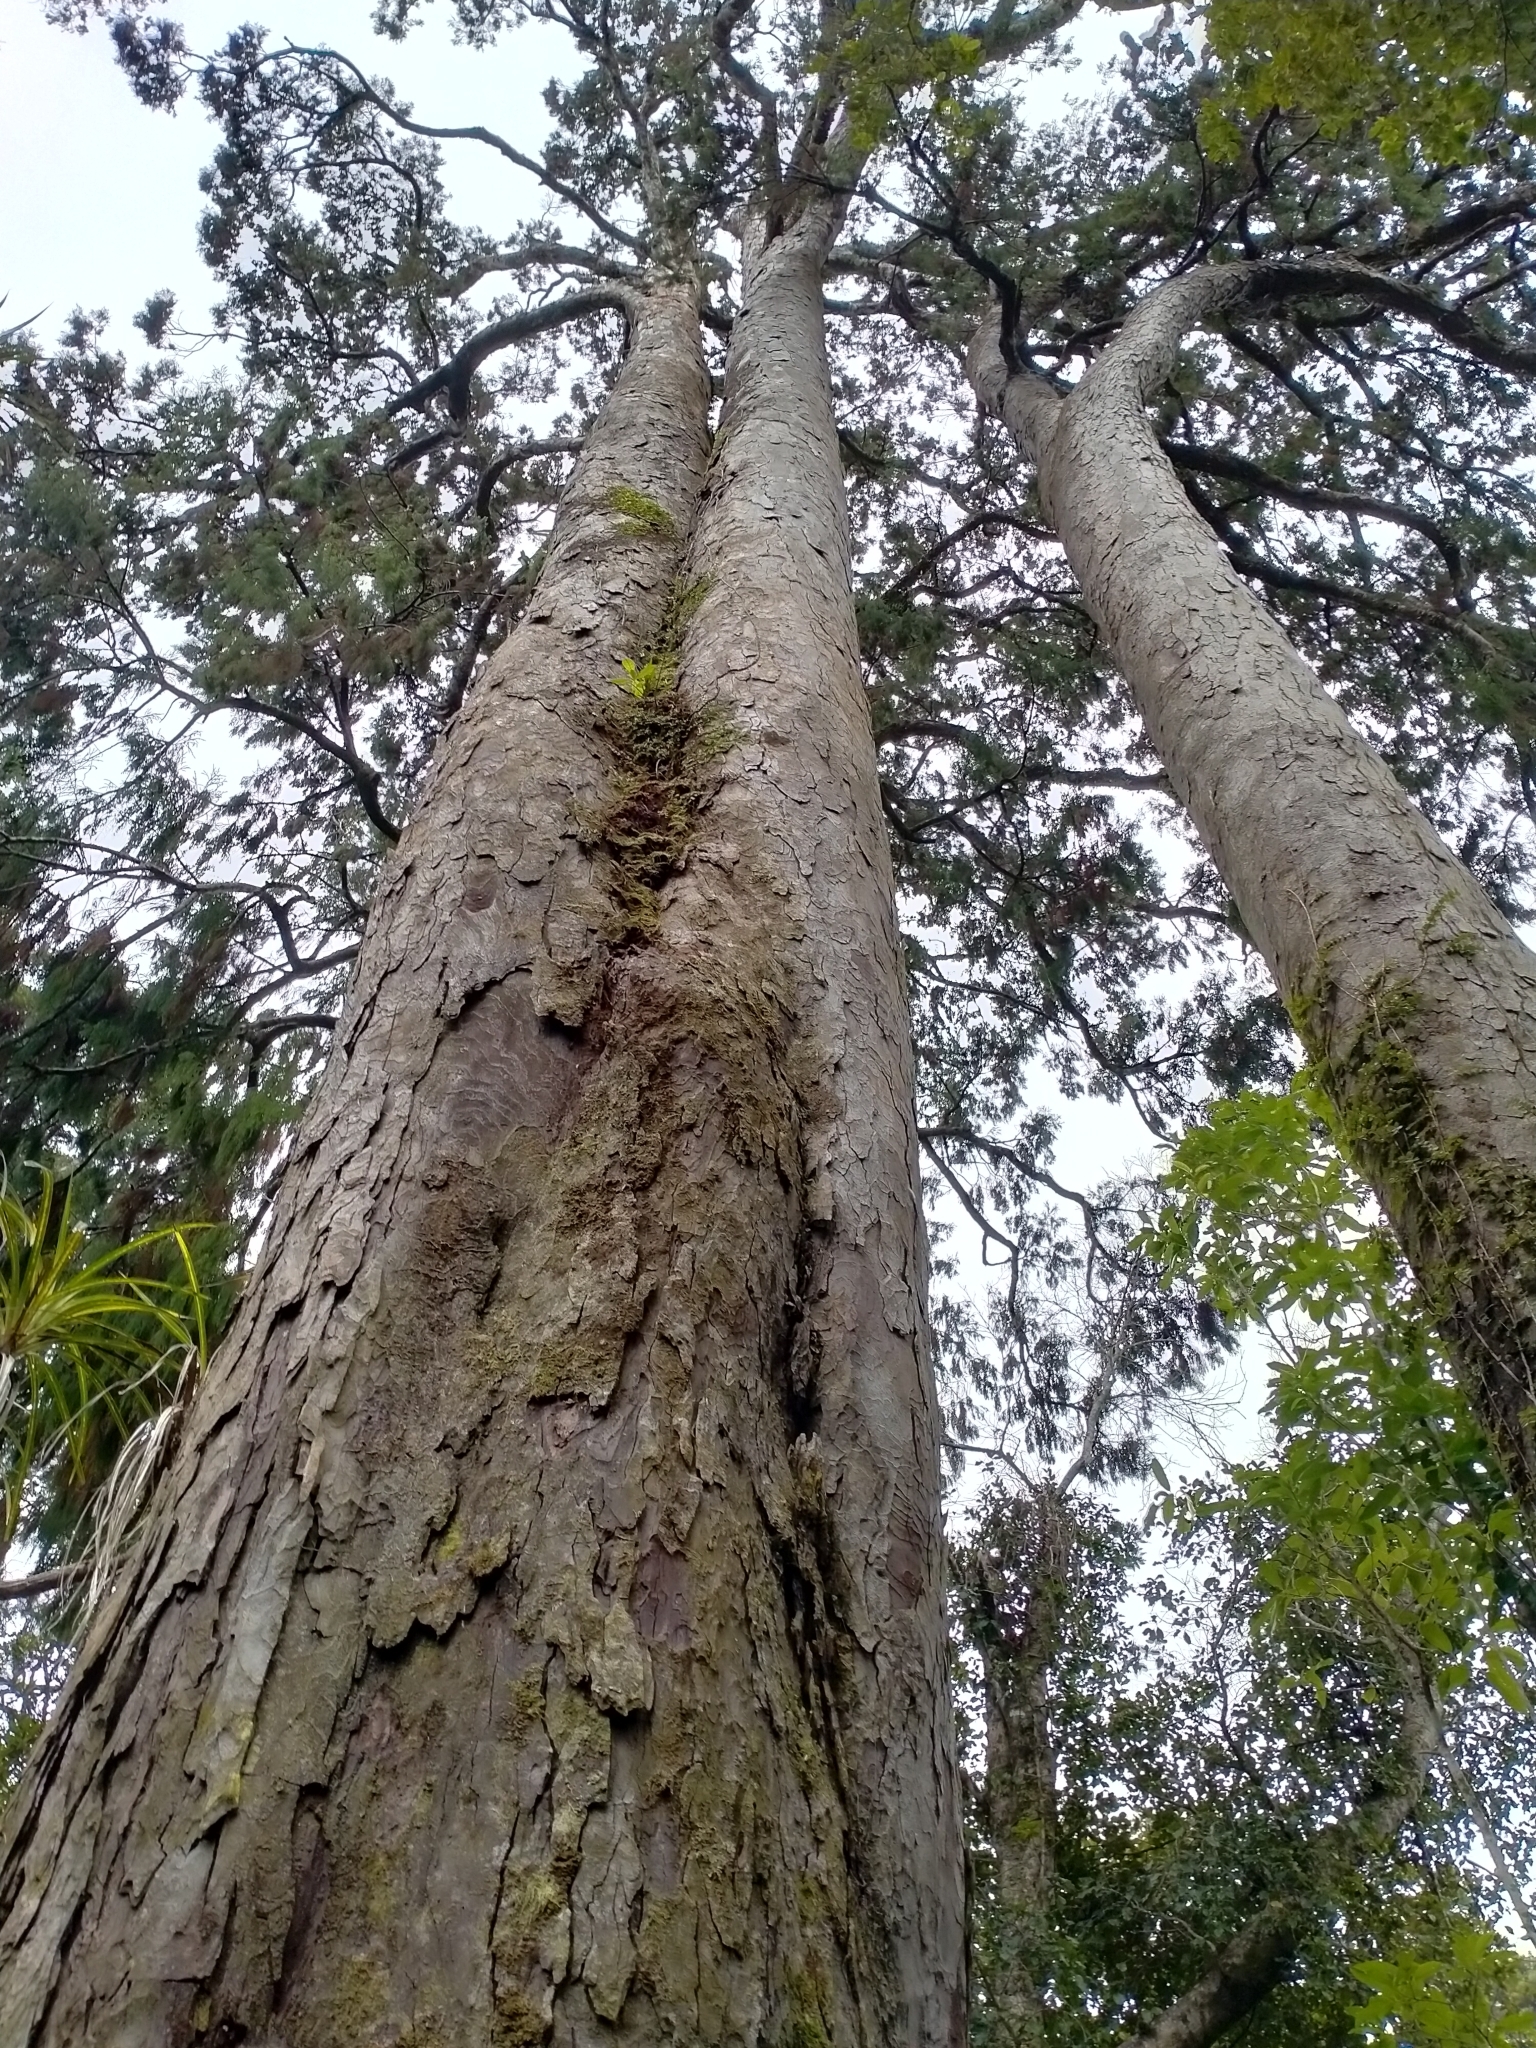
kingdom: Plantae
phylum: Tracheophyta
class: Pinopsida
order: Pinales
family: Podocarpaceae
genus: Dacrydium
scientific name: Dacrydium cupressinum
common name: Red pine
